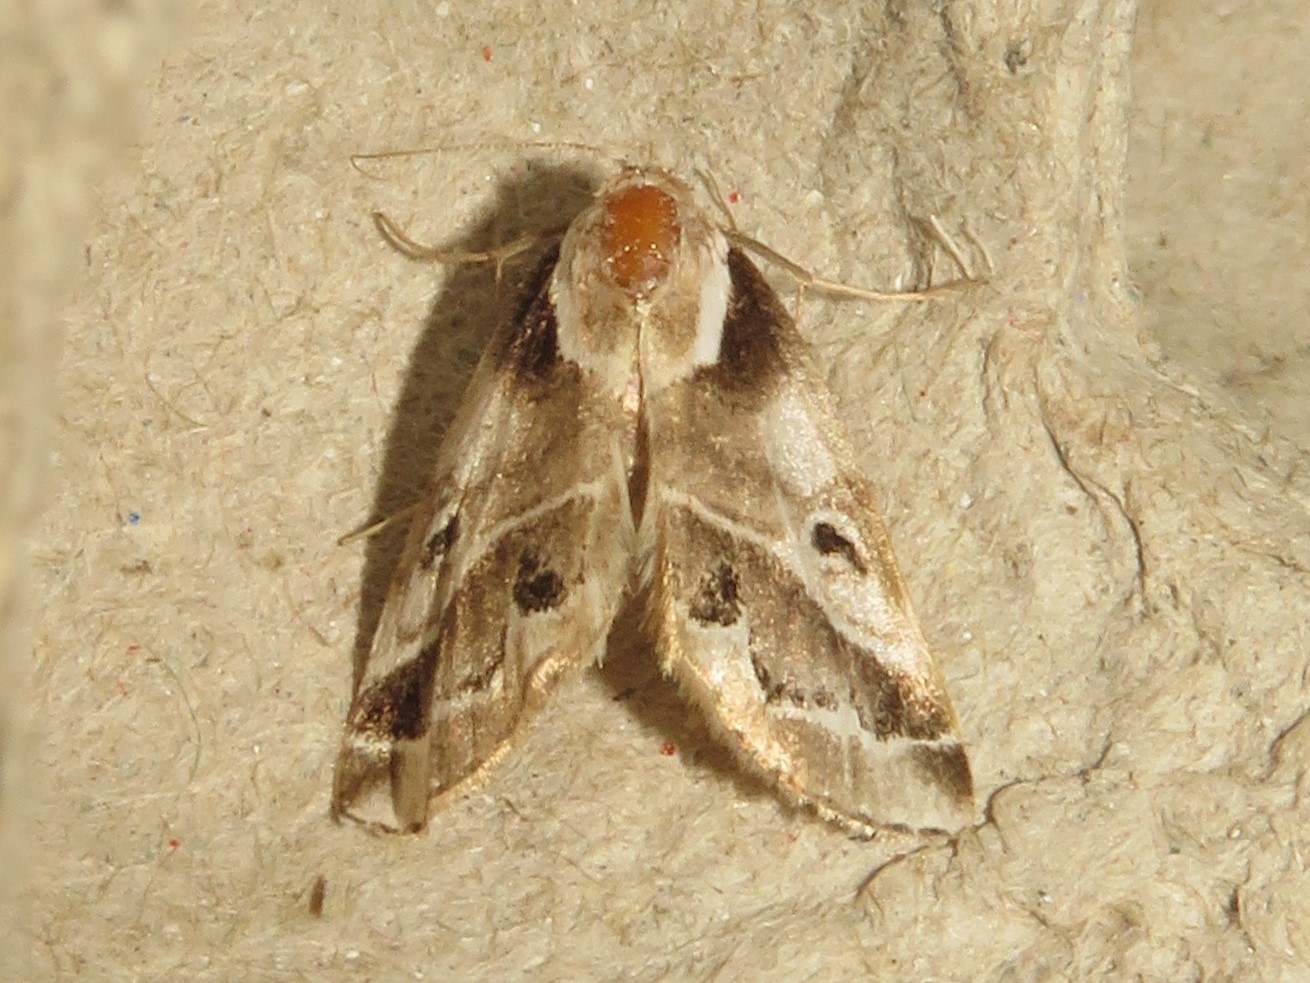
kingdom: Animalia
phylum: Arthropoda
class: Insecta
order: Lepidoptera
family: Nolidae
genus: Baileya
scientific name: Baileya doubledayi
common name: Doubleday's baileya moth
